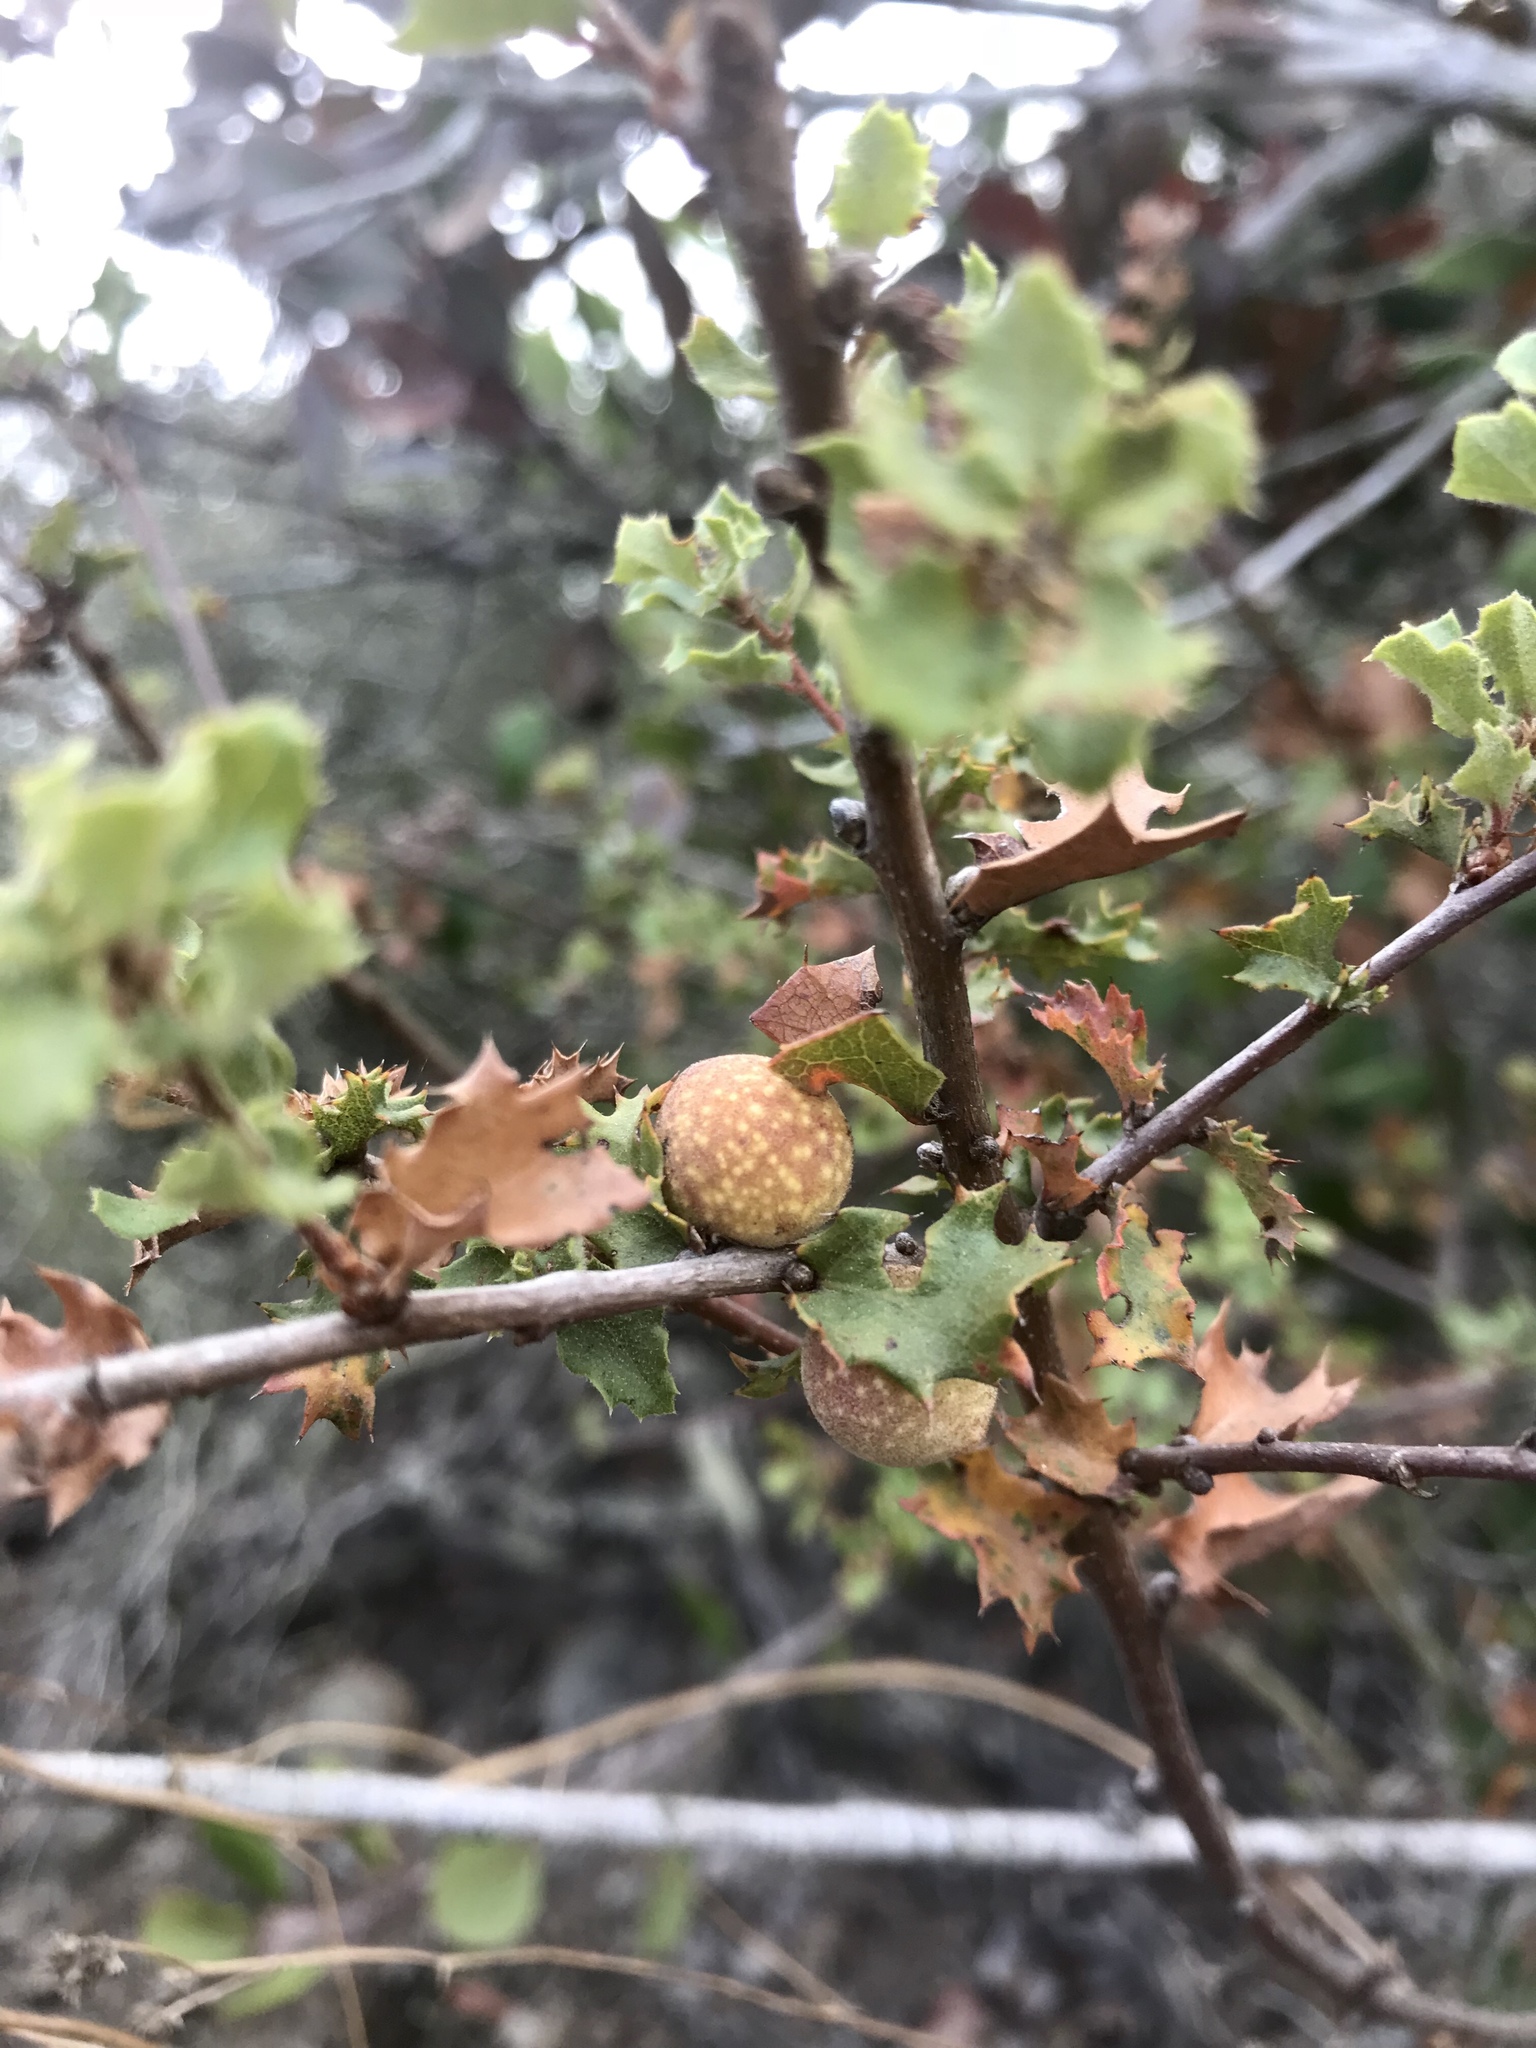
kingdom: Animalia
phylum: Arthropoda
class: Insecta
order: Hymenoptera
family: Cynipidae
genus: Burnettweldia
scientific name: Burnettweldia
